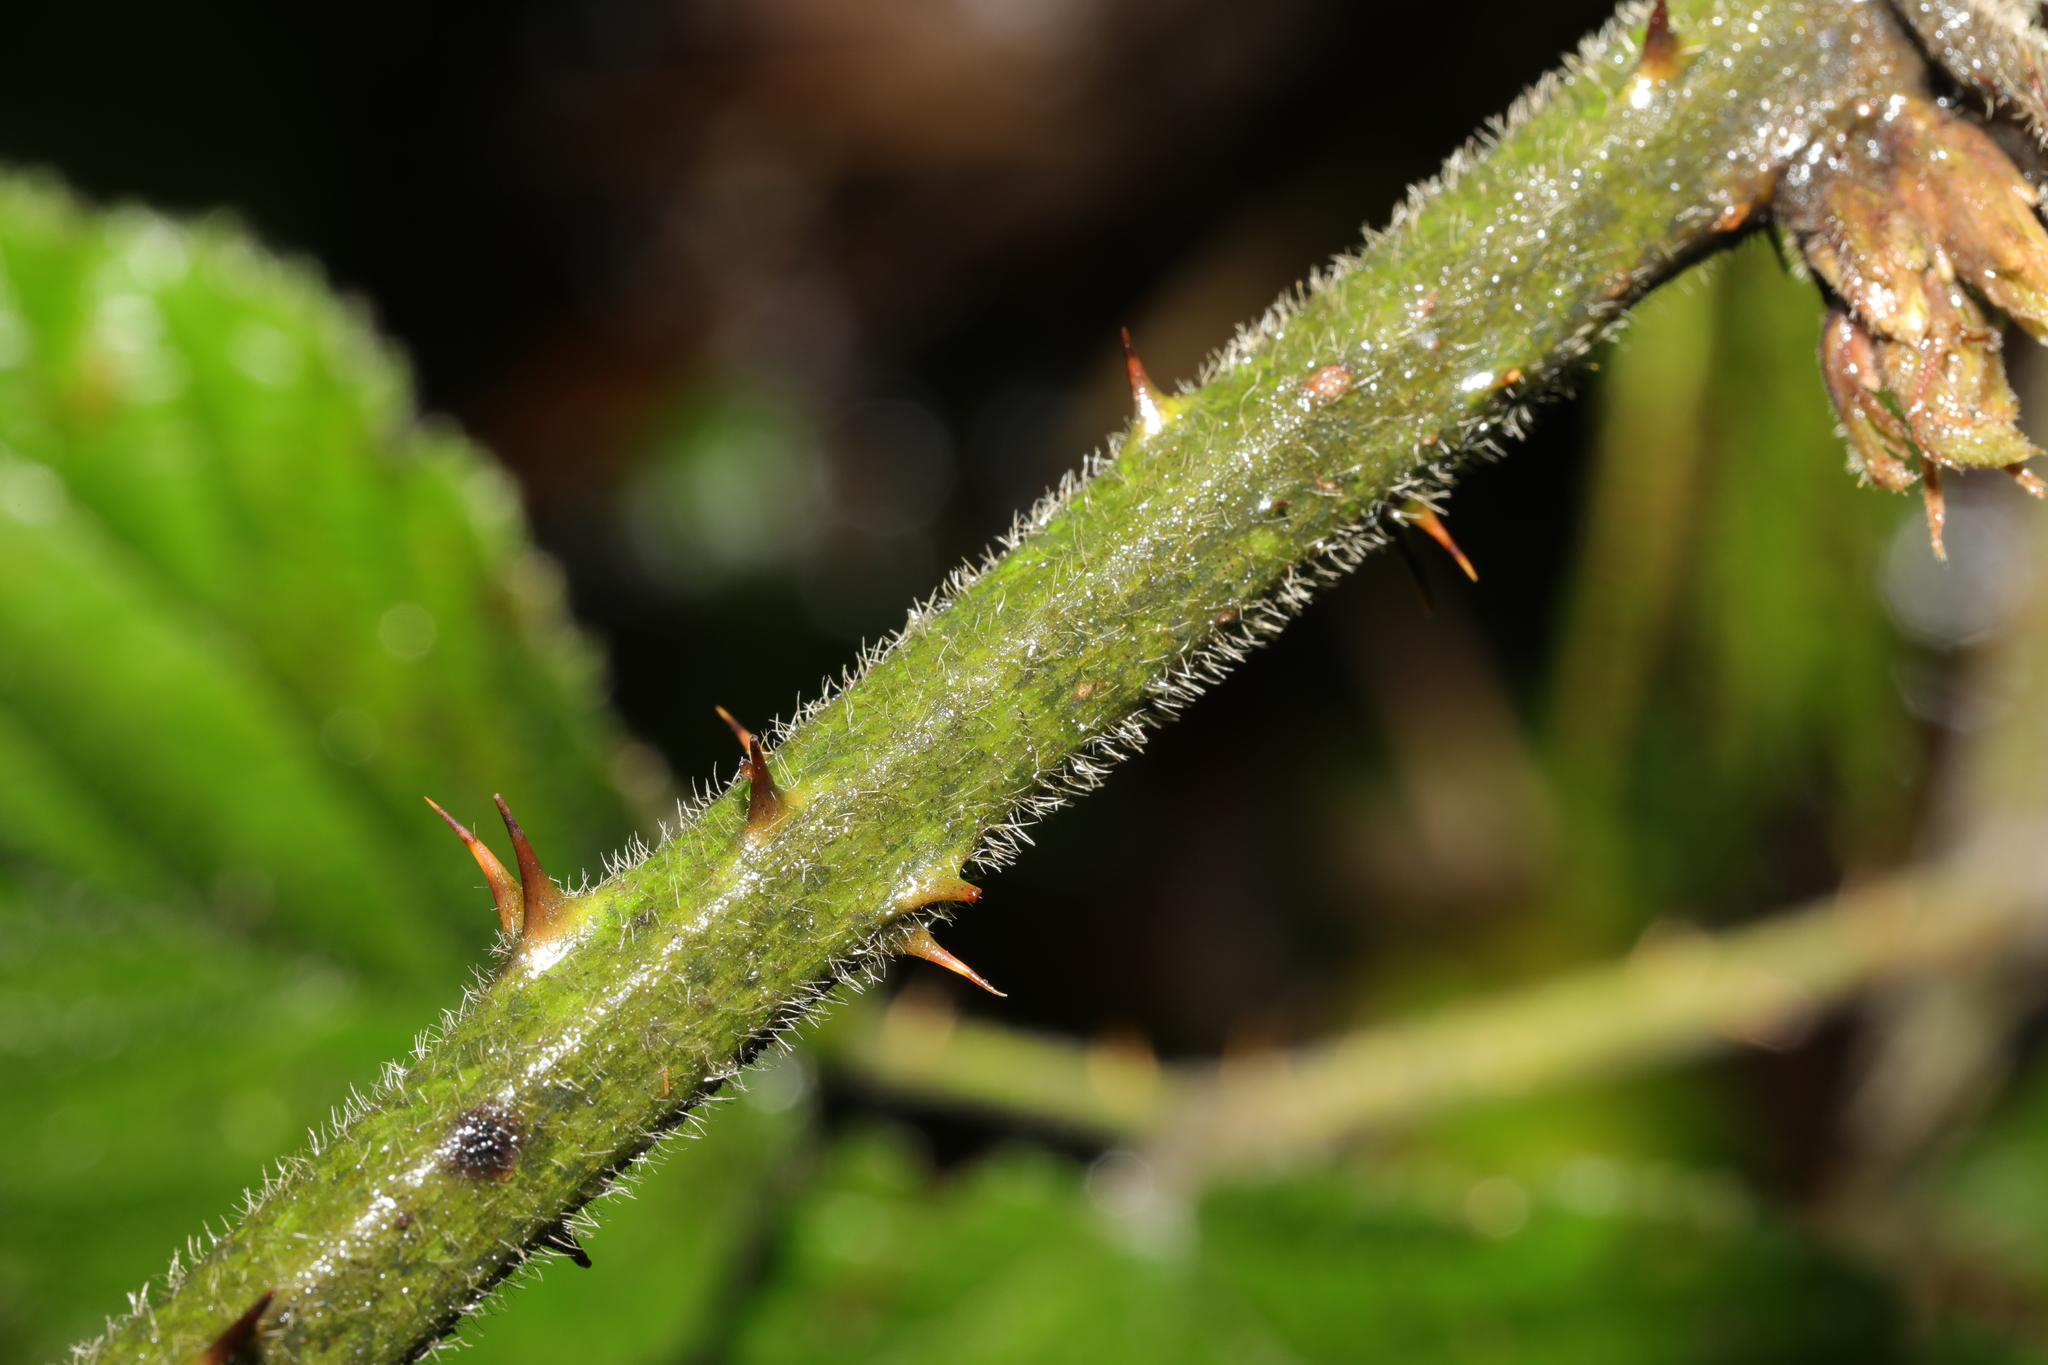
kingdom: Plantae
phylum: Tracheophyta
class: Magnoliopsida
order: Rosales
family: Rosaceae
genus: Rubus
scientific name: Rubus vestitus
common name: European blackberry
